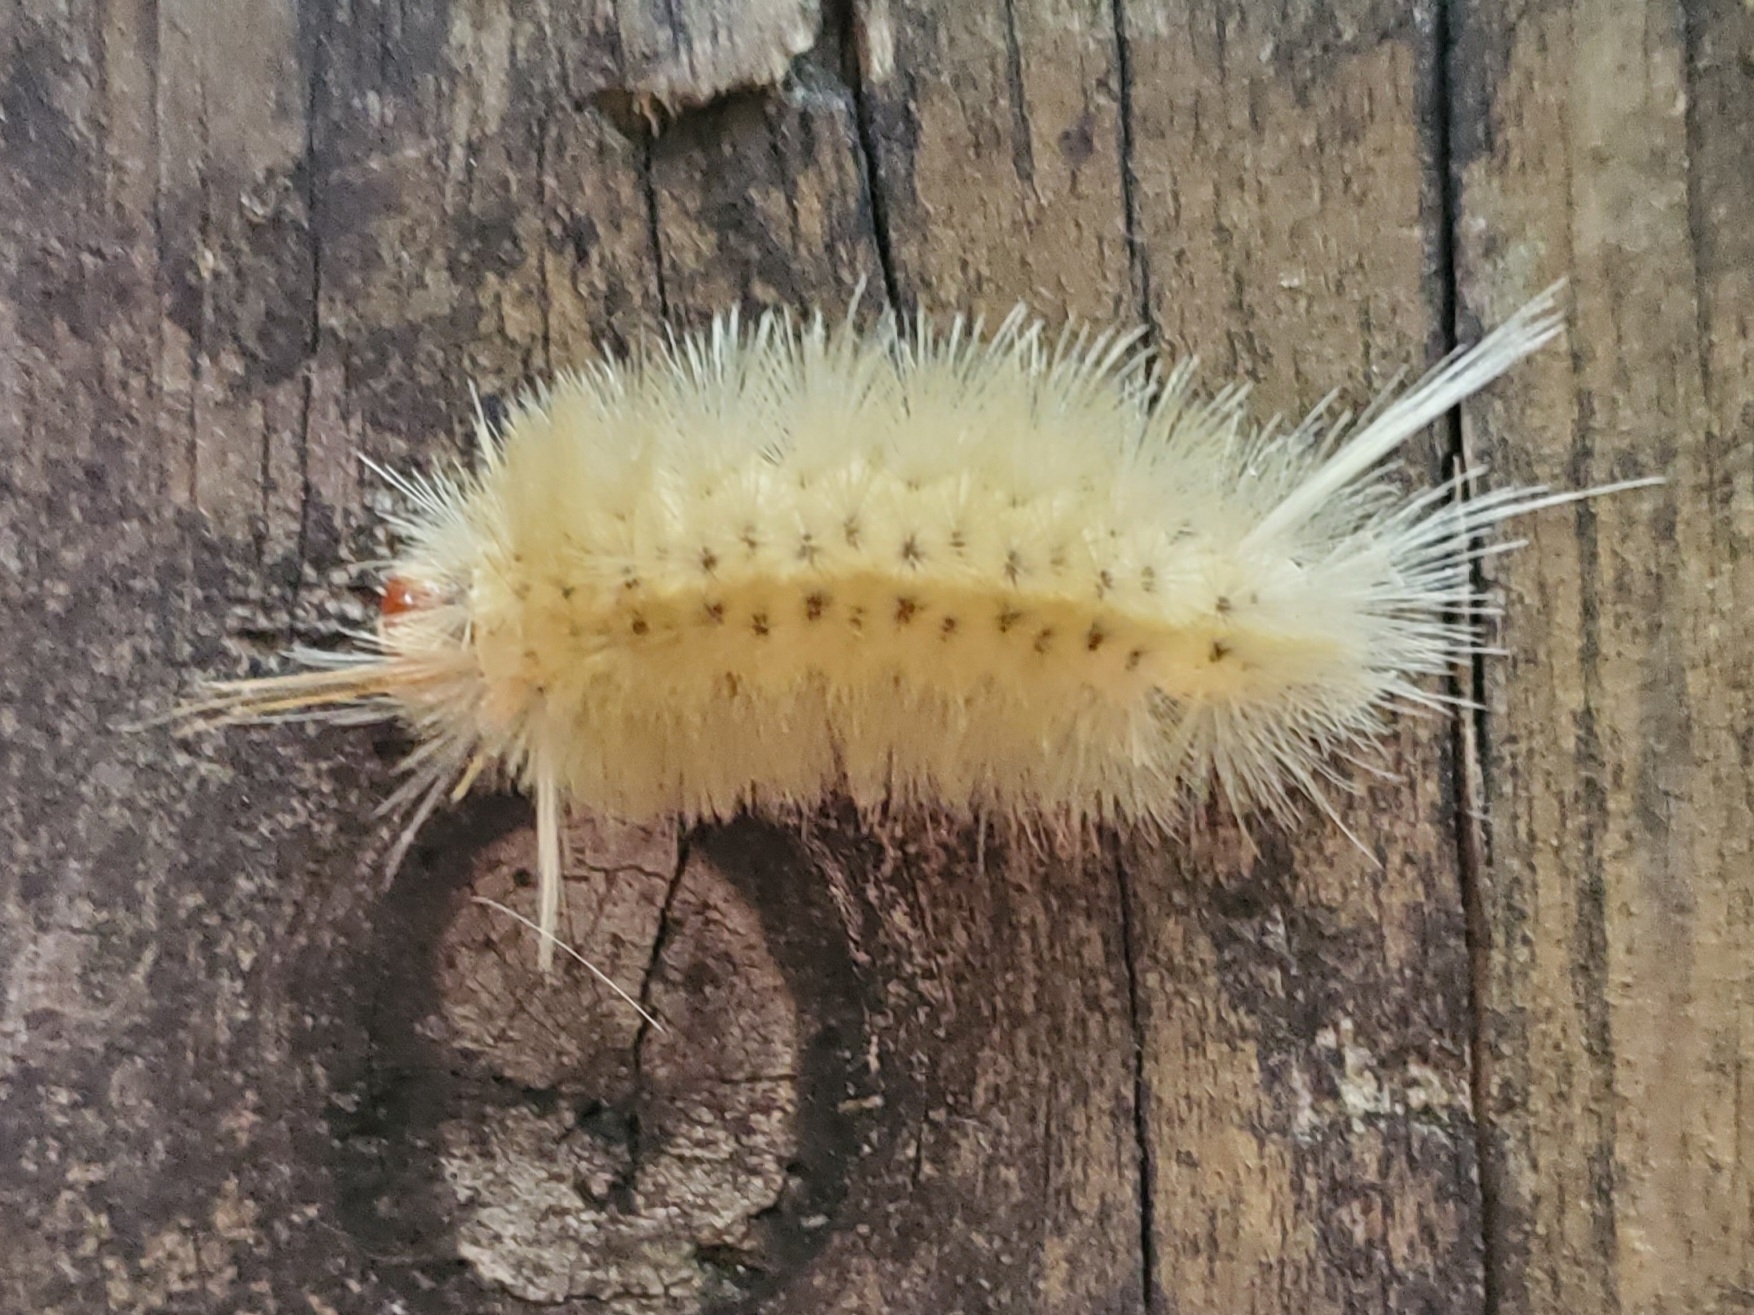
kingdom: Animalia
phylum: Arthropoda
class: Insecta
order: Lepidoptera
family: Erebidae
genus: Halysidota
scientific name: Halysidota harrisii
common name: Sycamore tussock moth
